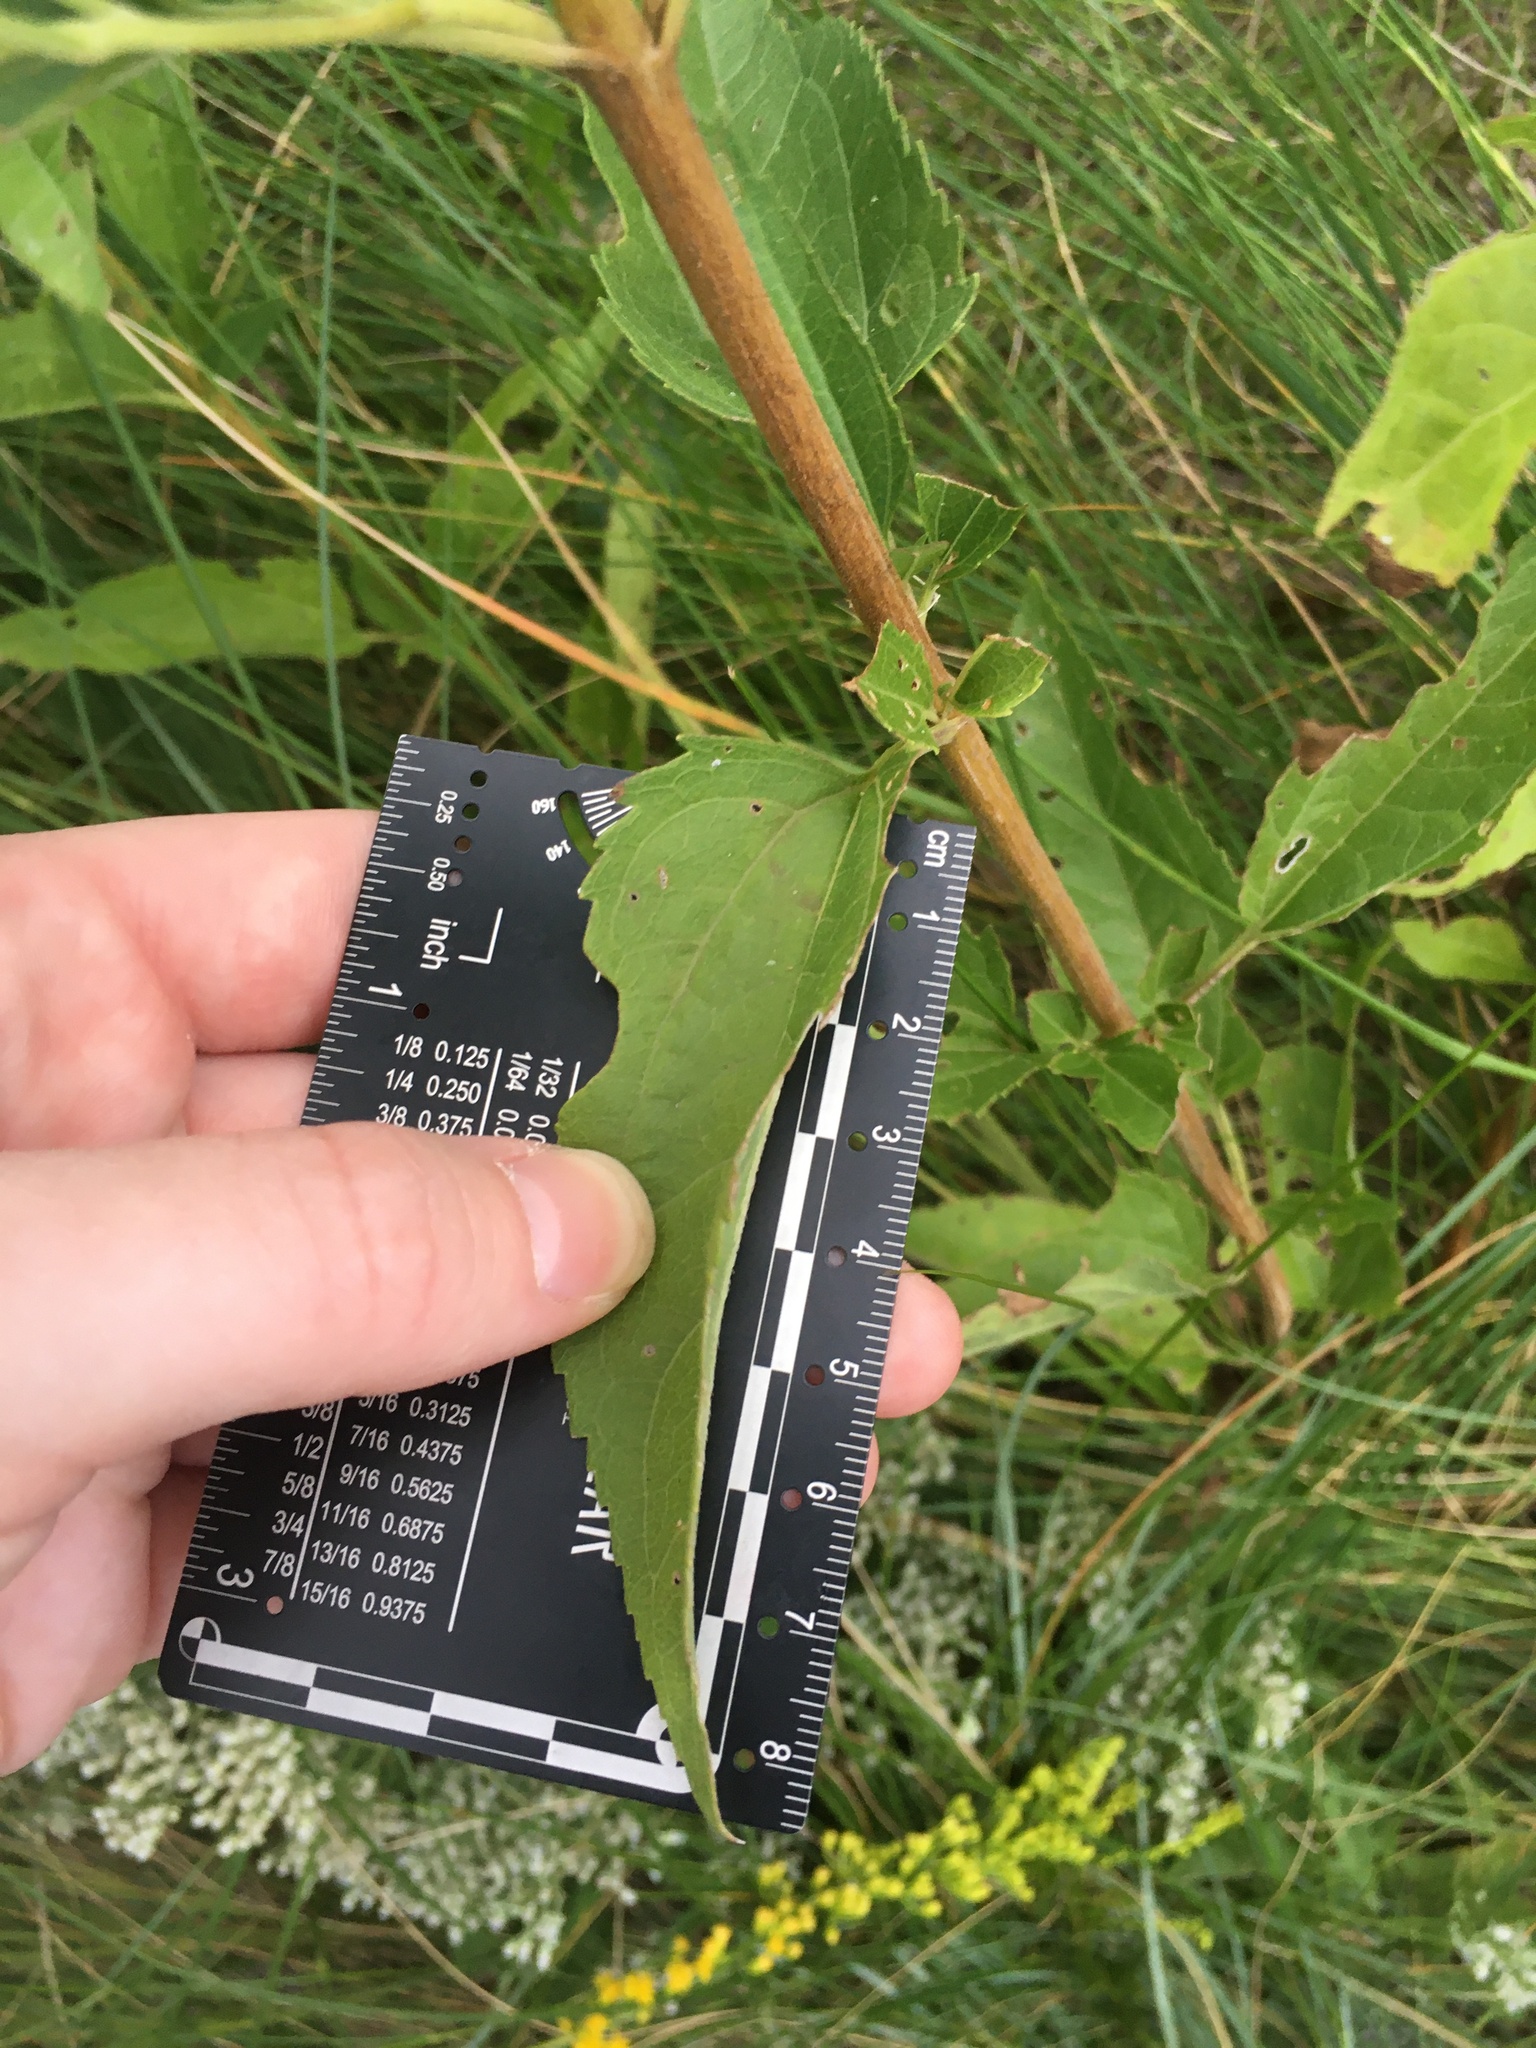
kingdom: Plantae
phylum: Tracheophyta
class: Magnoliopsida
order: Asterales
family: Asteraceae
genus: Eupatorium
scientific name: Eupatorium serotinum
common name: Late boneset
